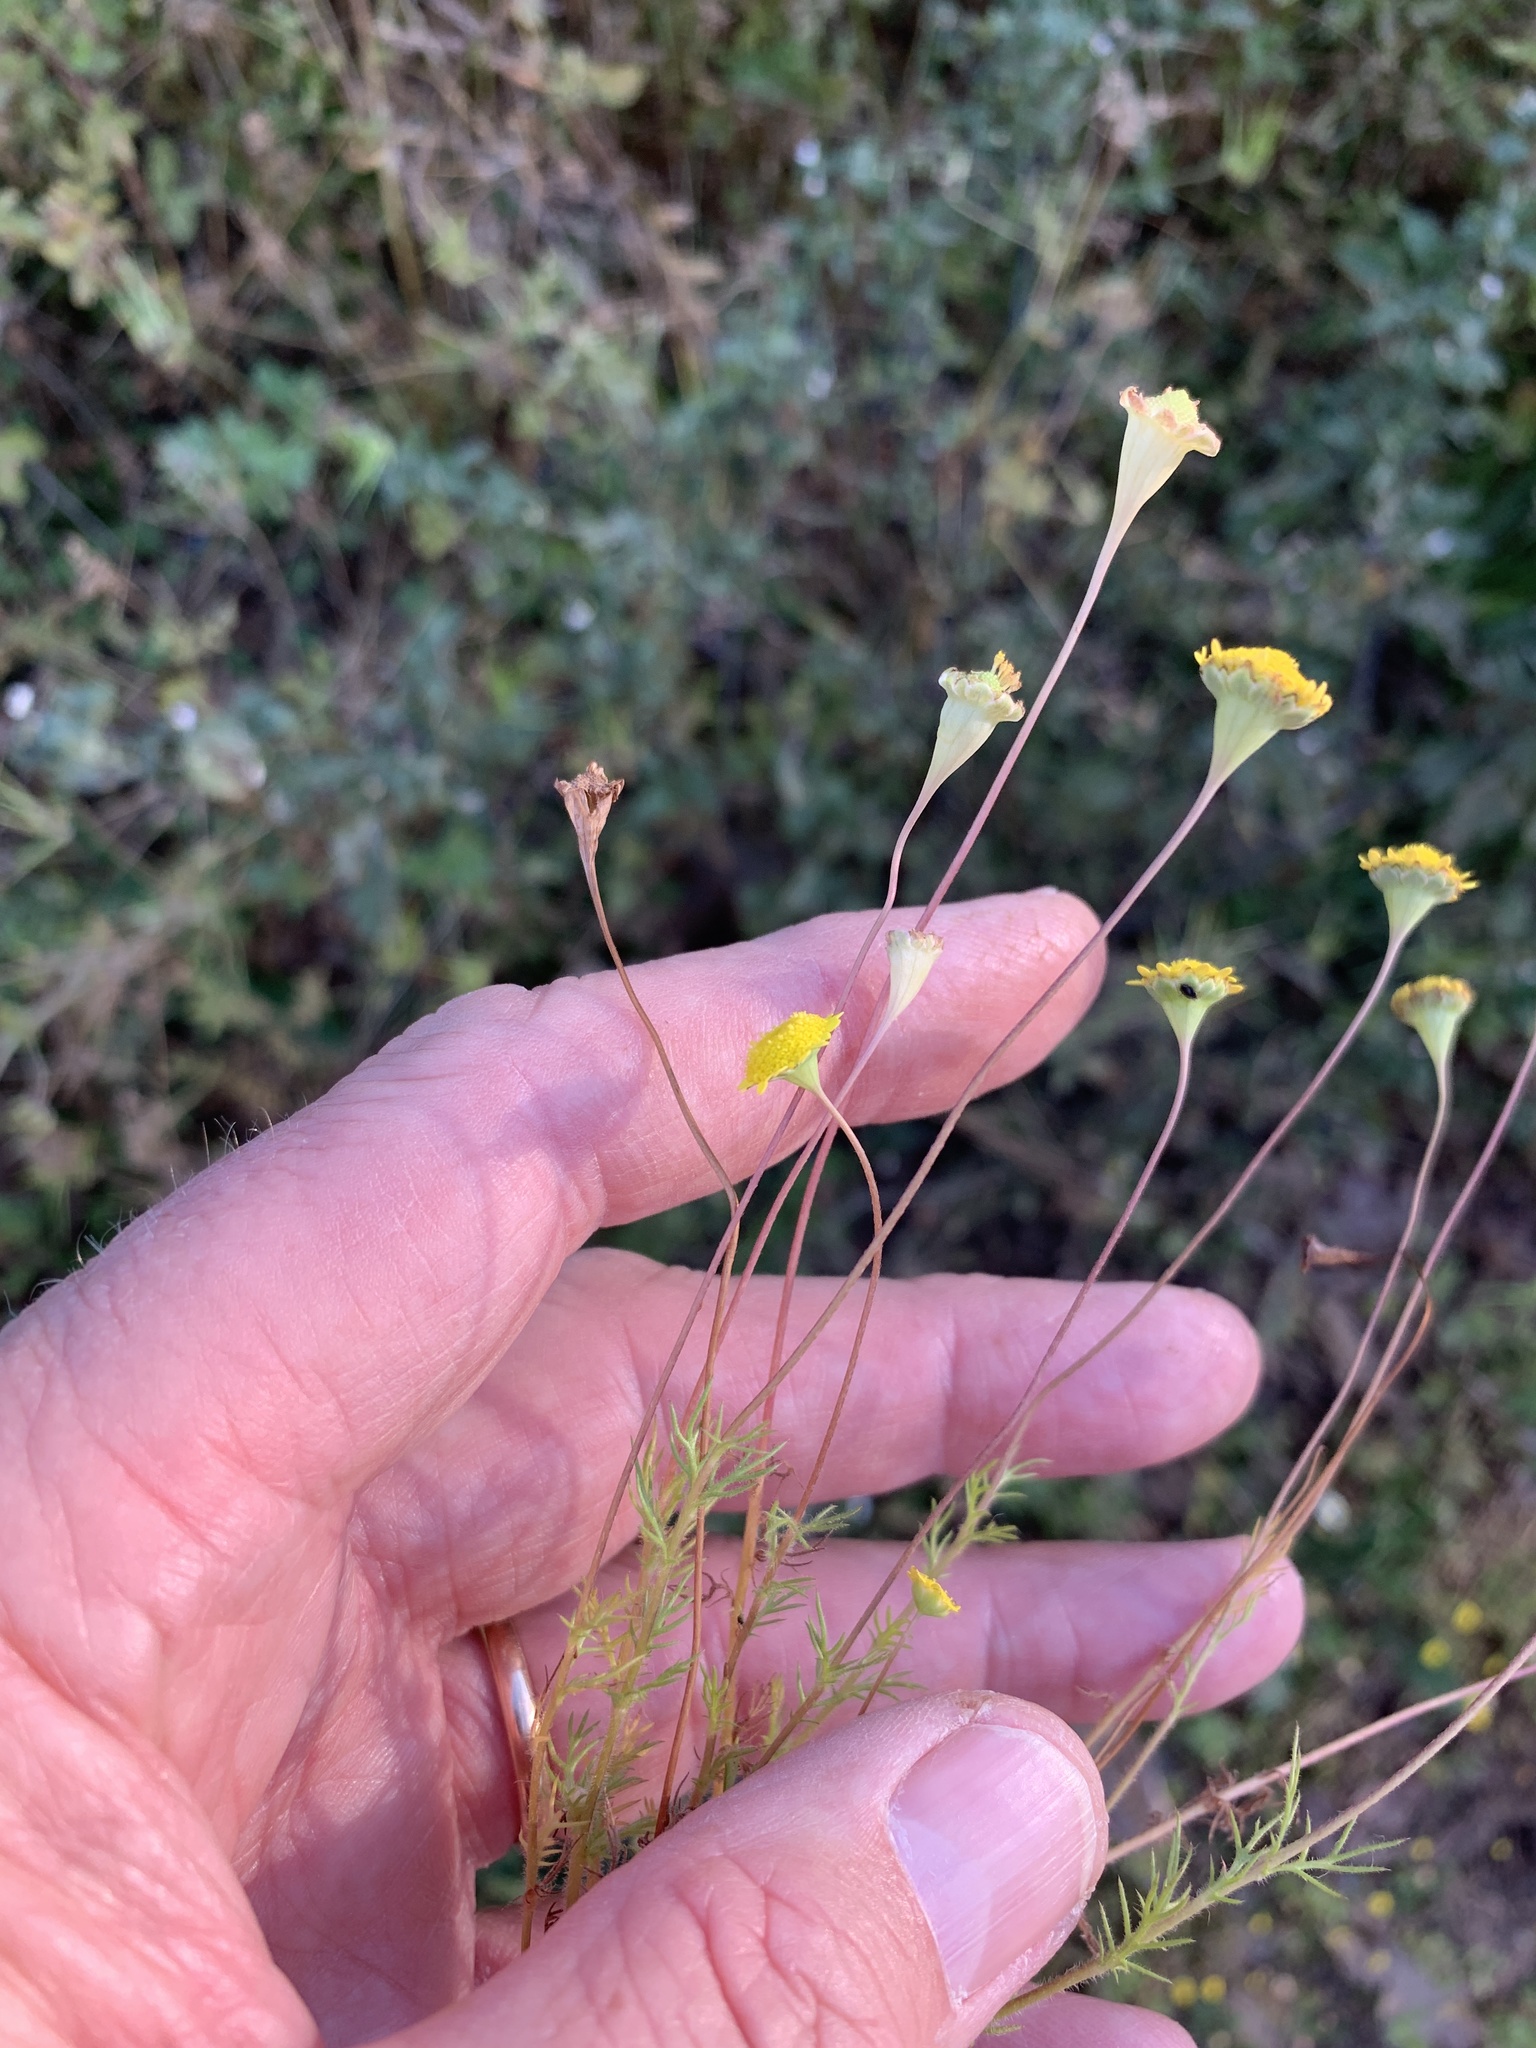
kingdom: Plantae
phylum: Tracheophyta
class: Magnoliopsida
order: Asterales
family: Asteraceae
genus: Cotula
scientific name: Cotula pruinosa
